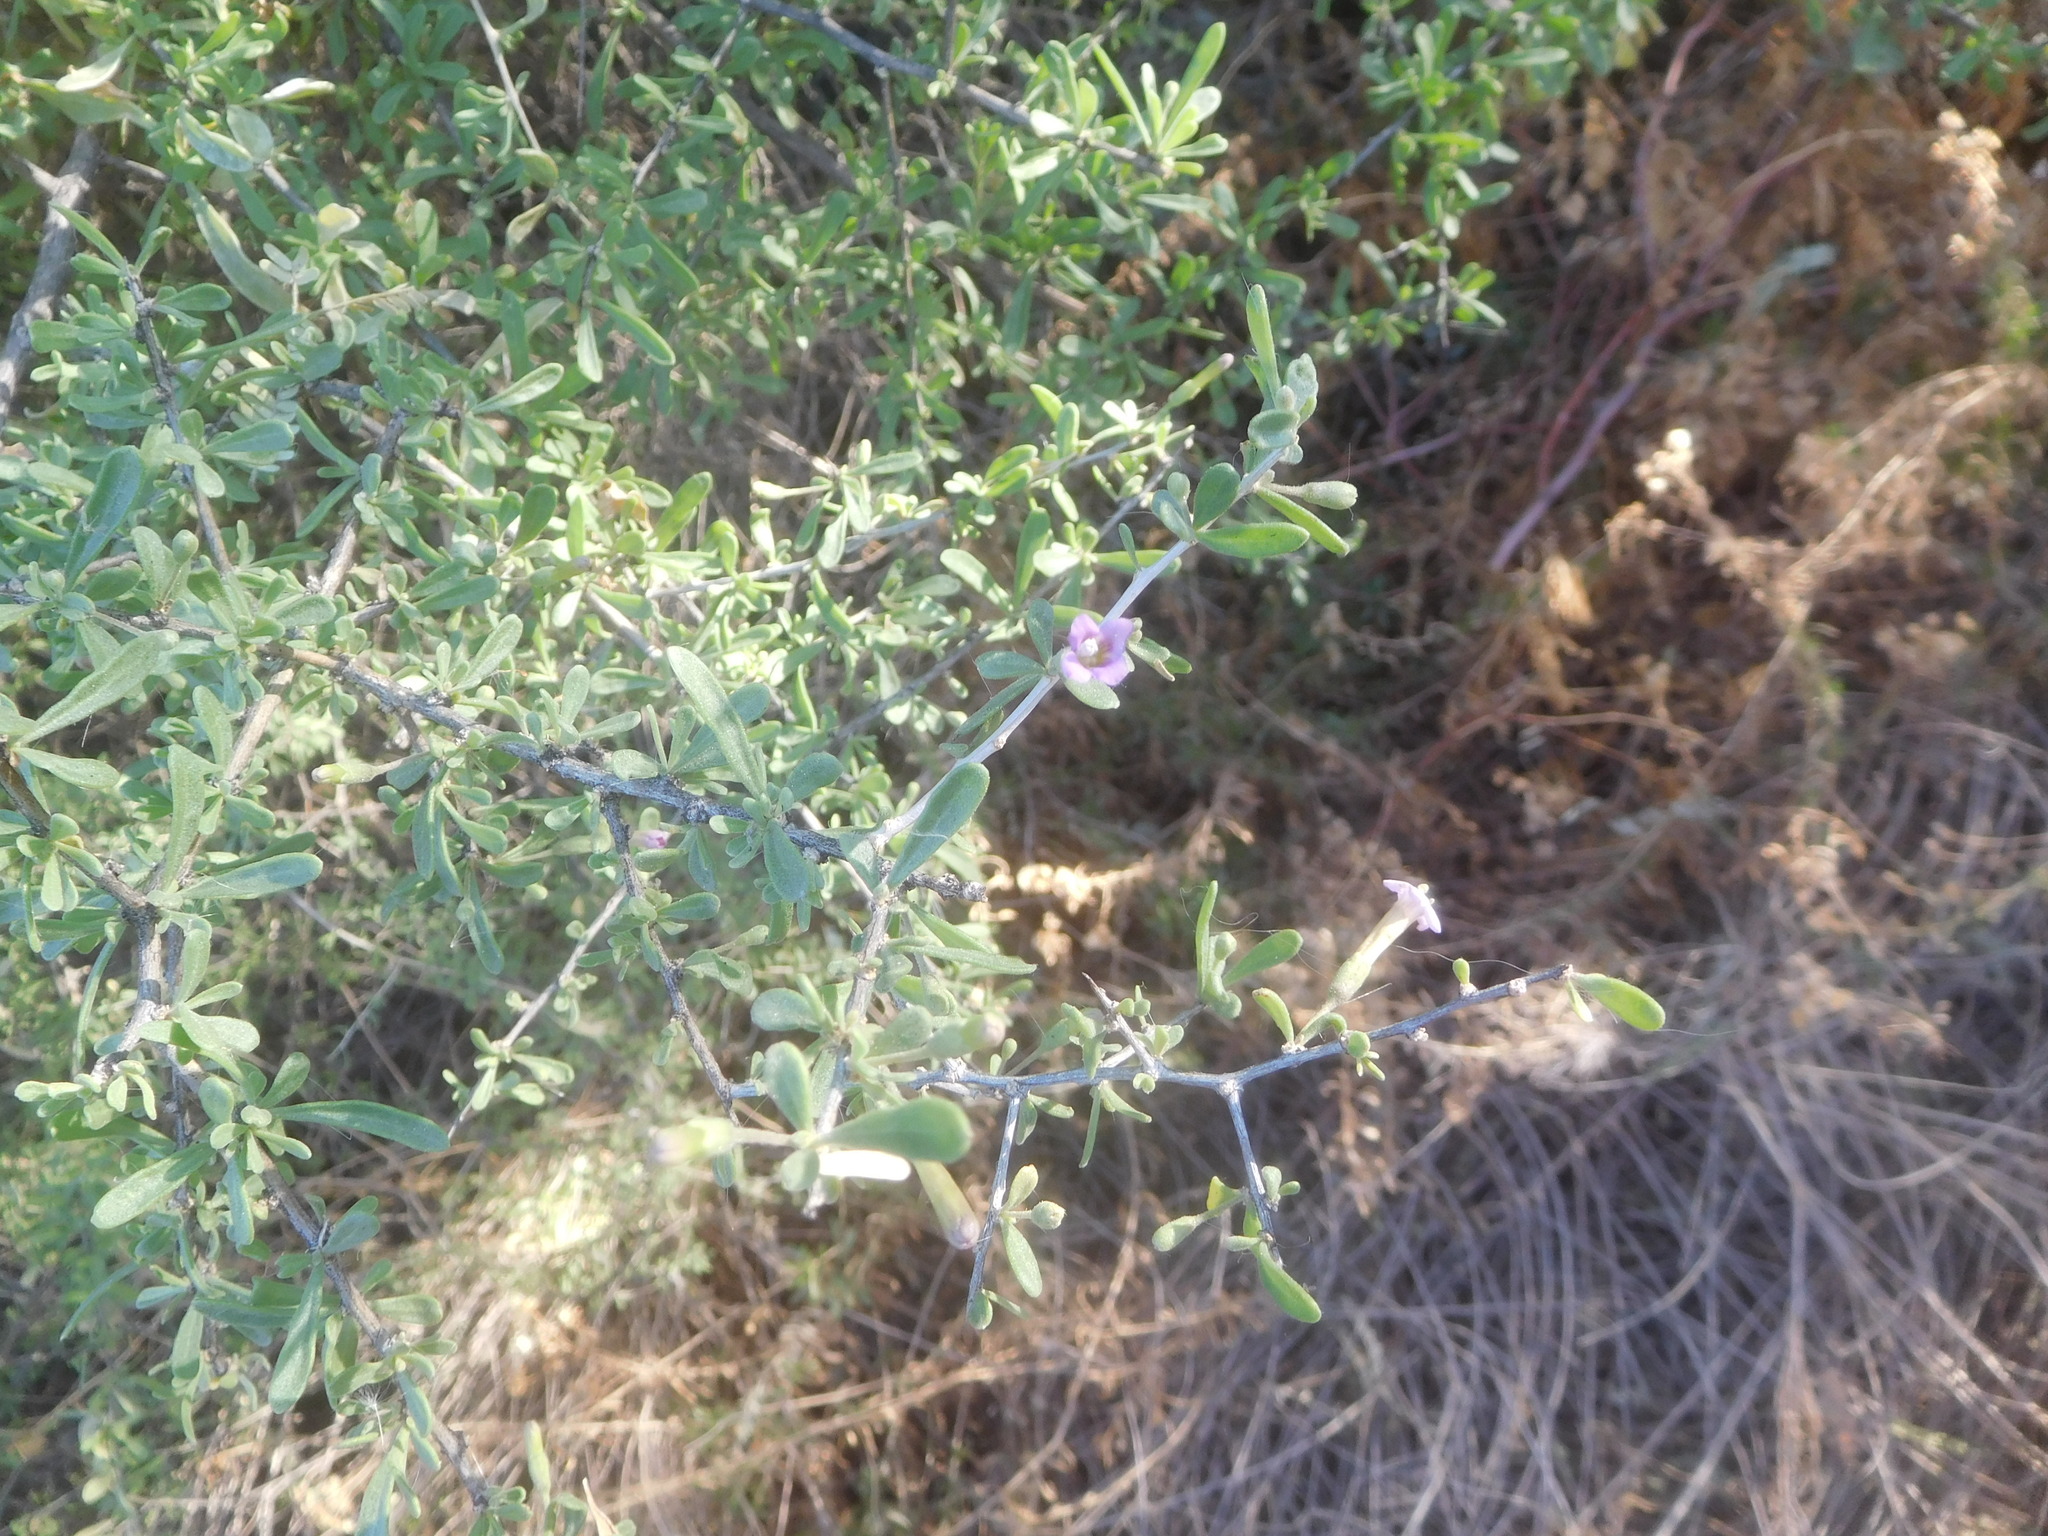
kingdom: Plantae
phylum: Tracheophyta
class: Magnoliopsida
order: Solanales
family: Solanaceae
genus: Lycium
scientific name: Lycium fremontii
